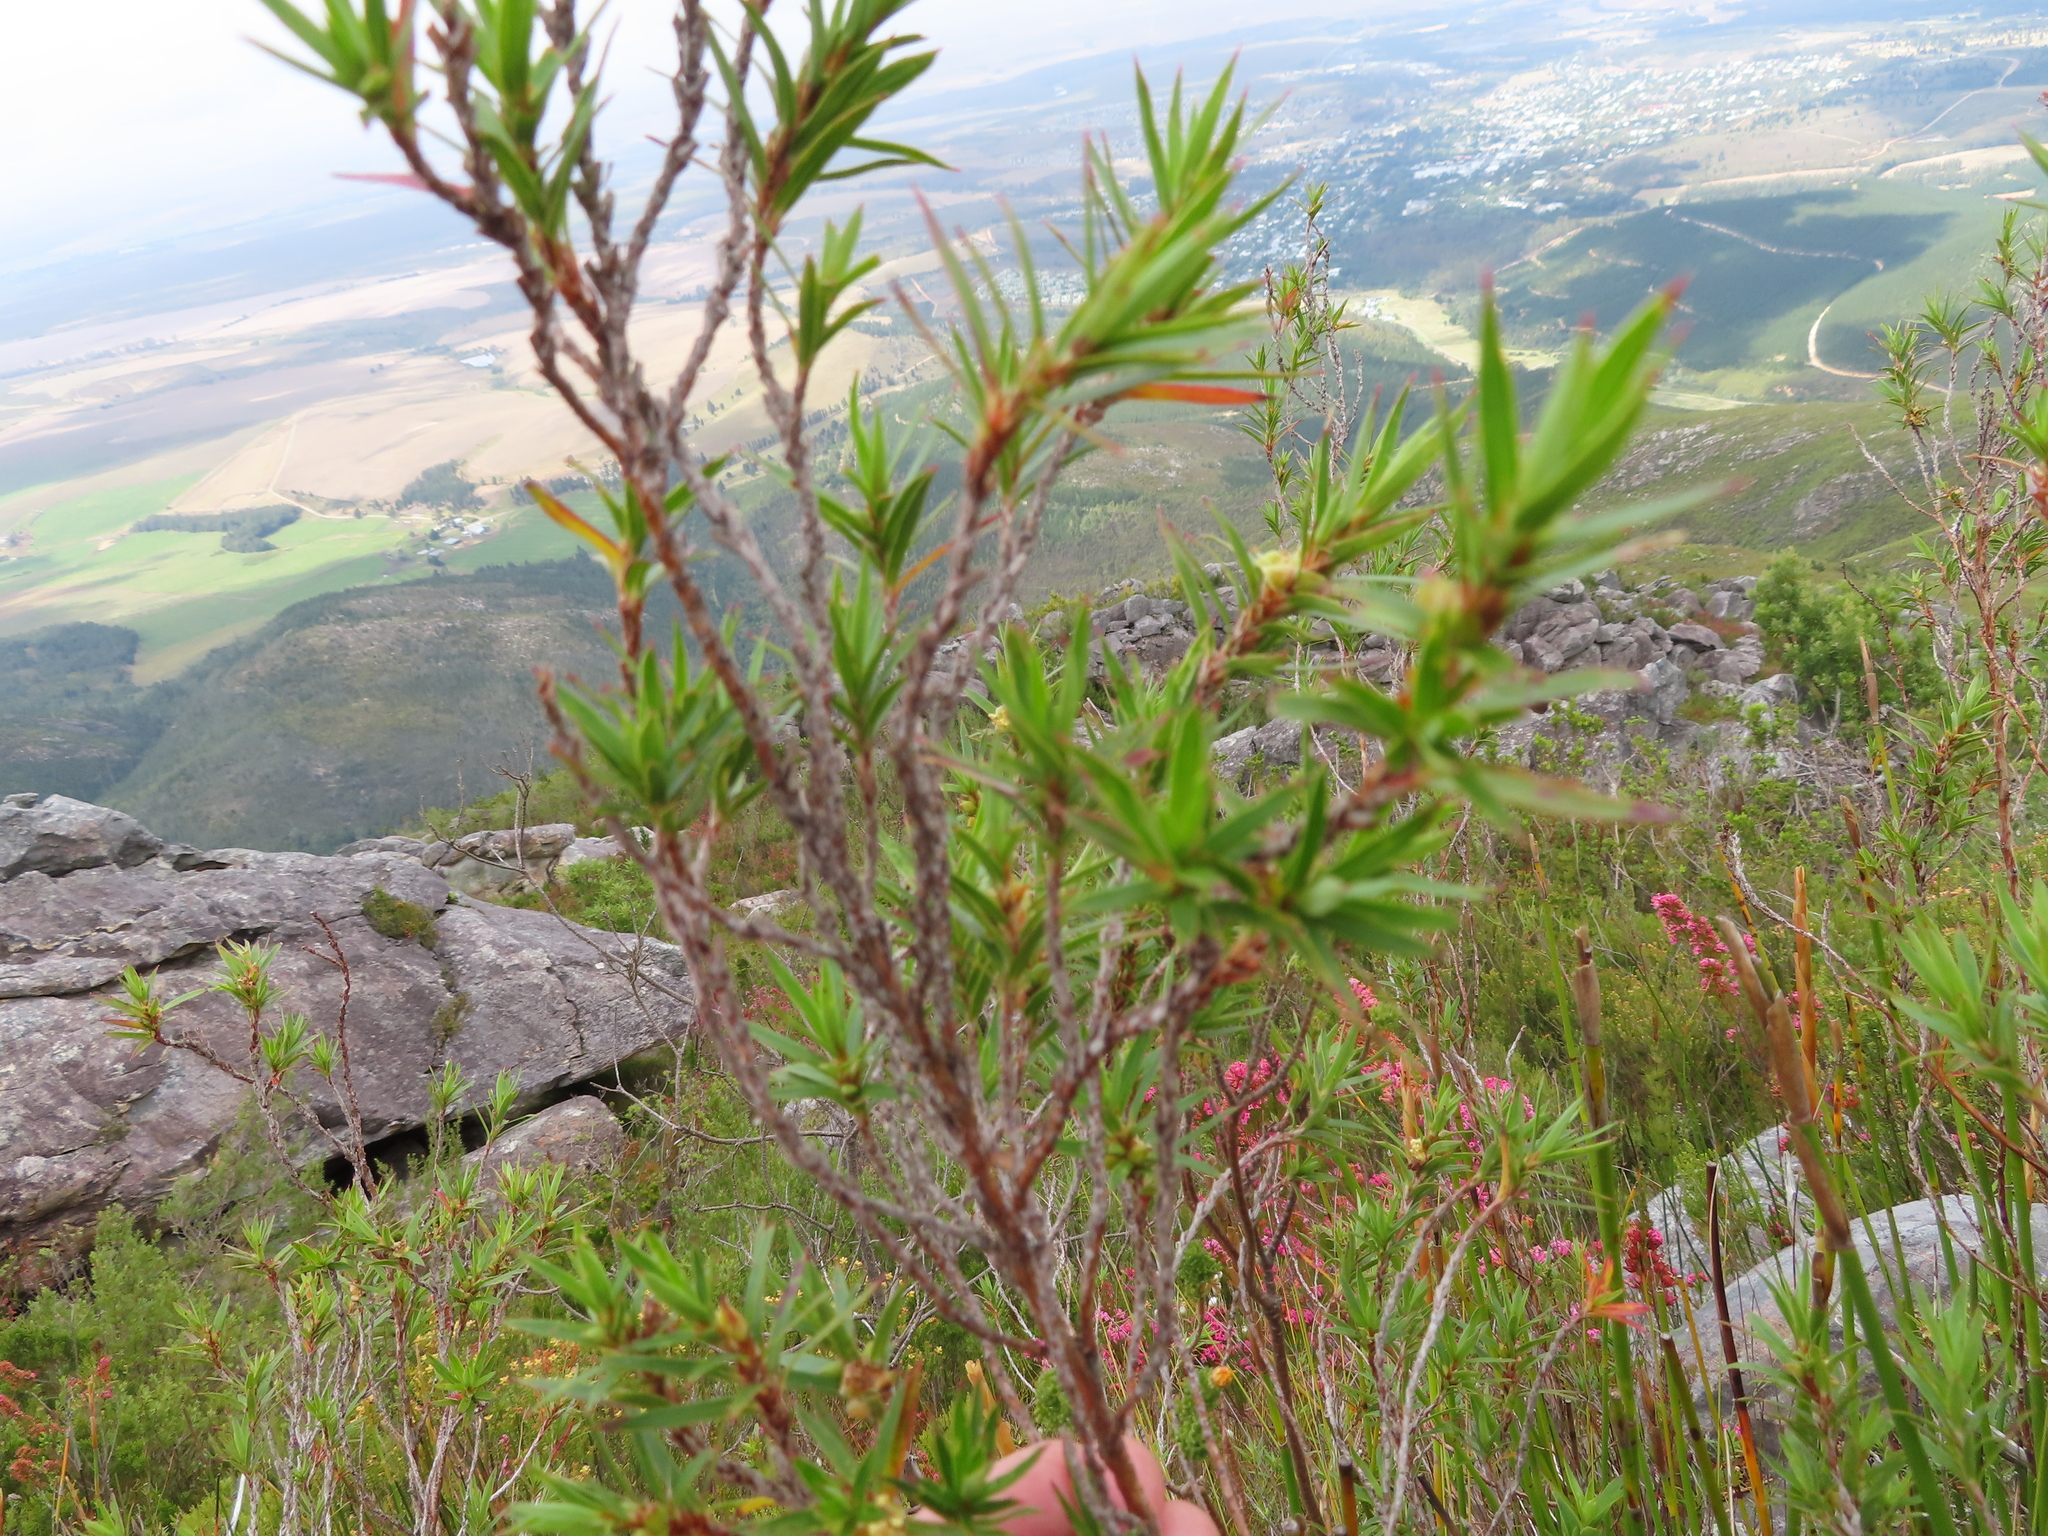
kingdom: Plantae
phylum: Tracheophyta
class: Magnoliopsida
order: Rosales
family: Rosaceae
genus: Cliffortia
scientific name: Cliffortia lanceolata
